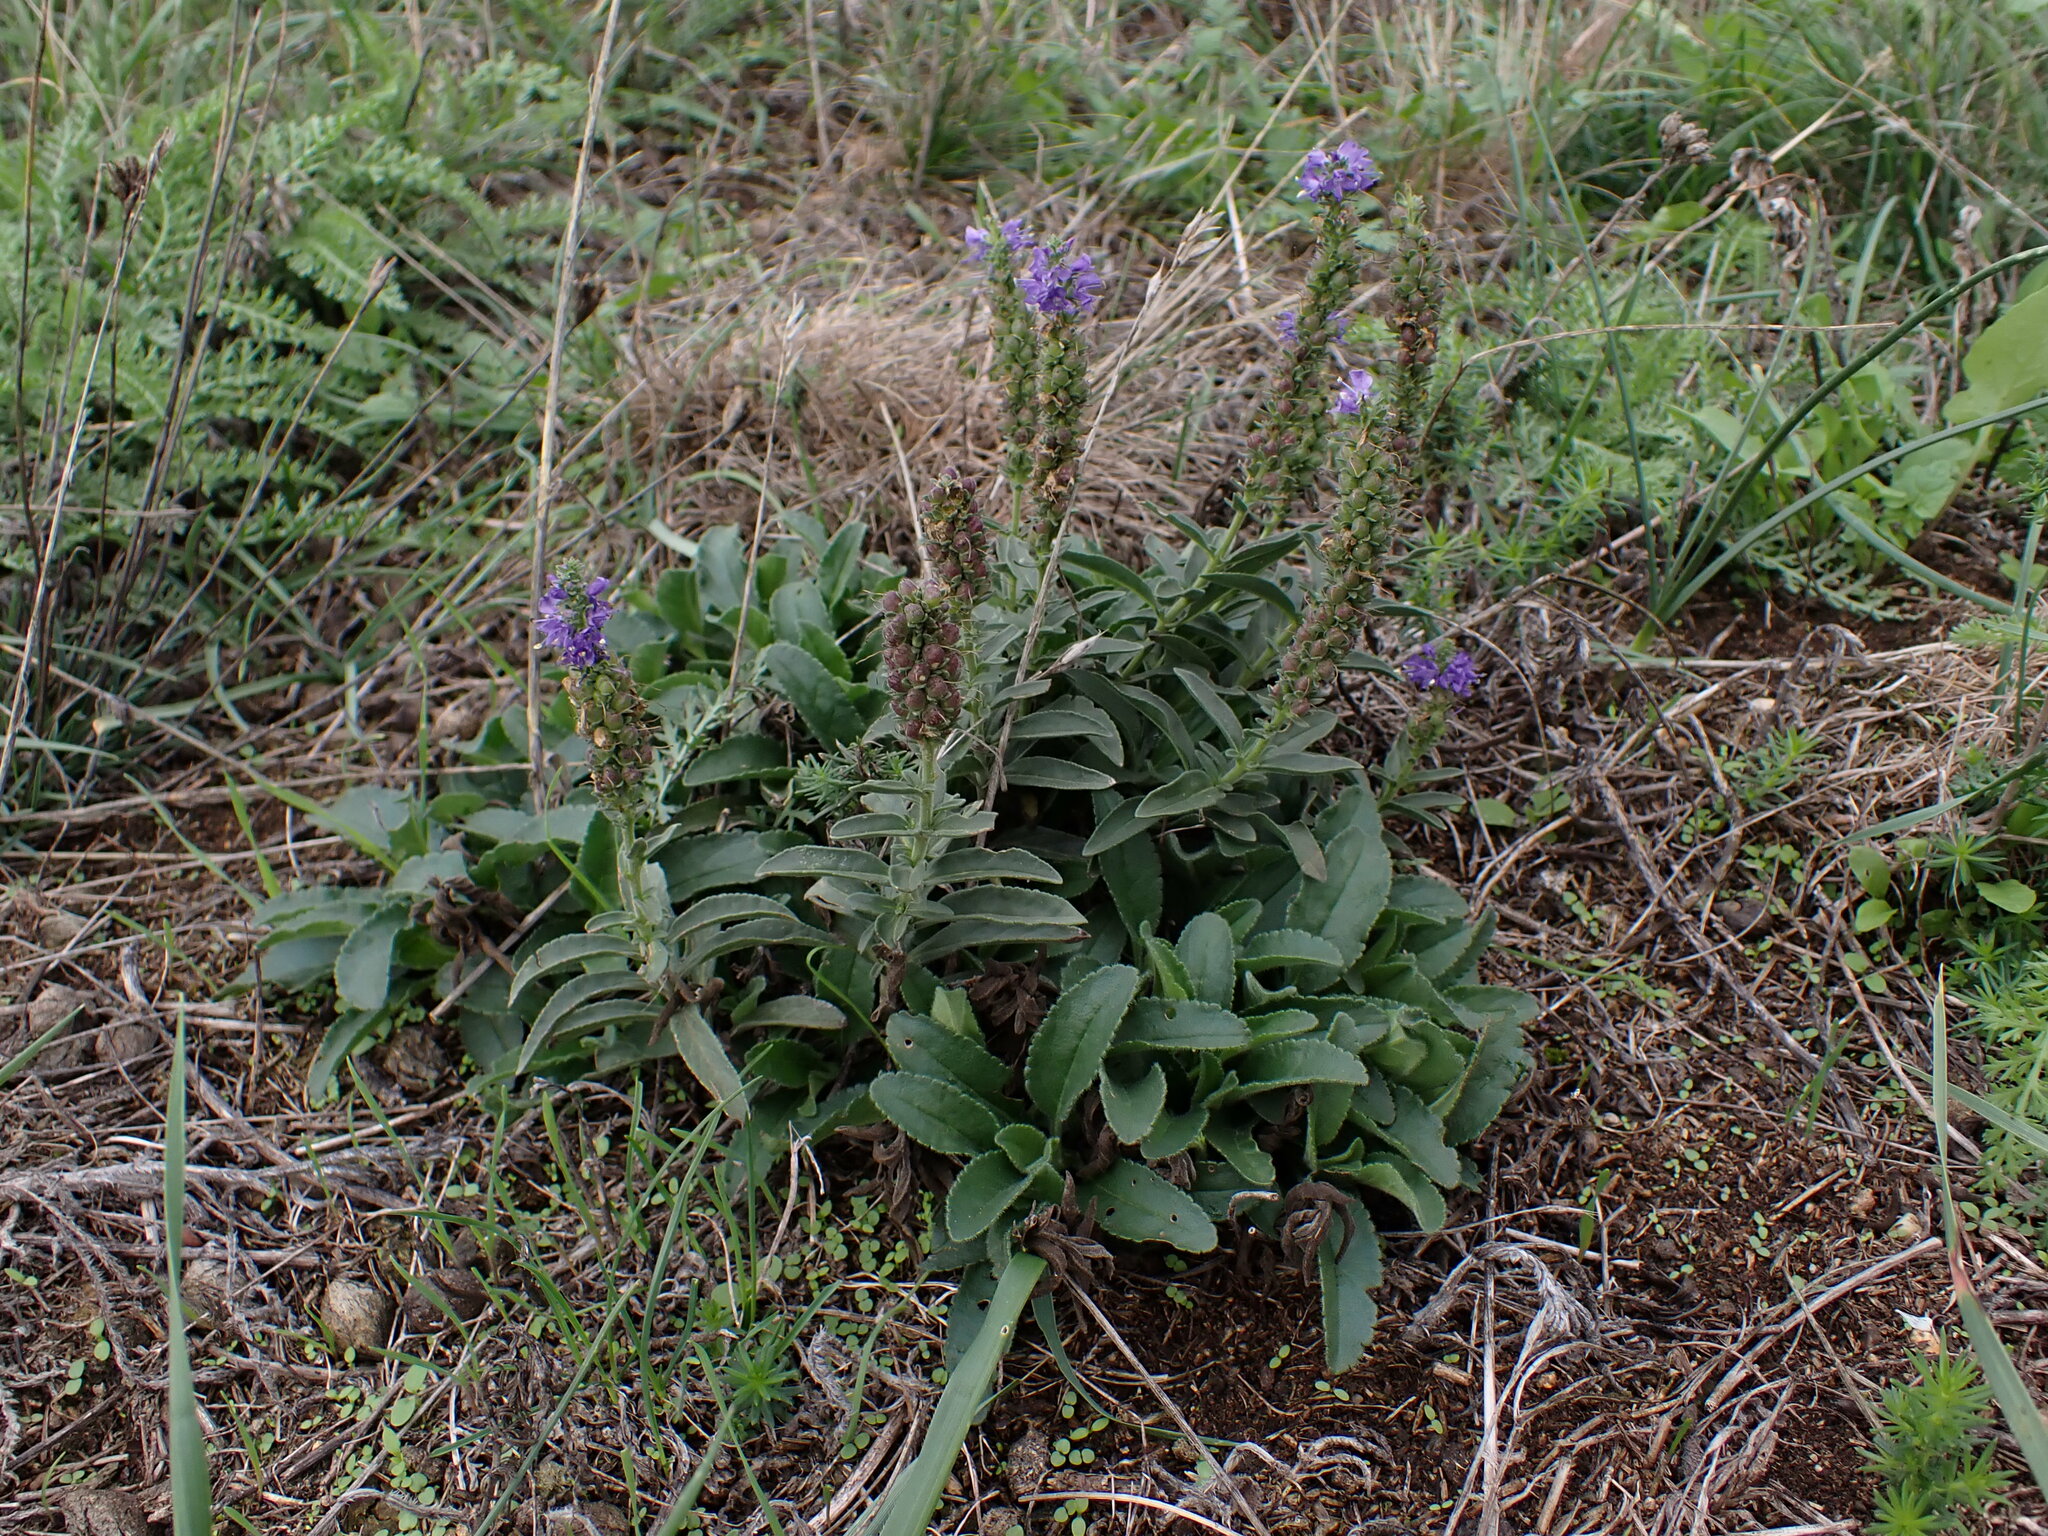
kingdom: Plantae
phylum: Tracheophyta
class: Magnoliopsida
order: Lamiales
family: Plantaginaceae
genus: Veronica
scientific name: Veronica spicata
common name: Spiked speedwell
